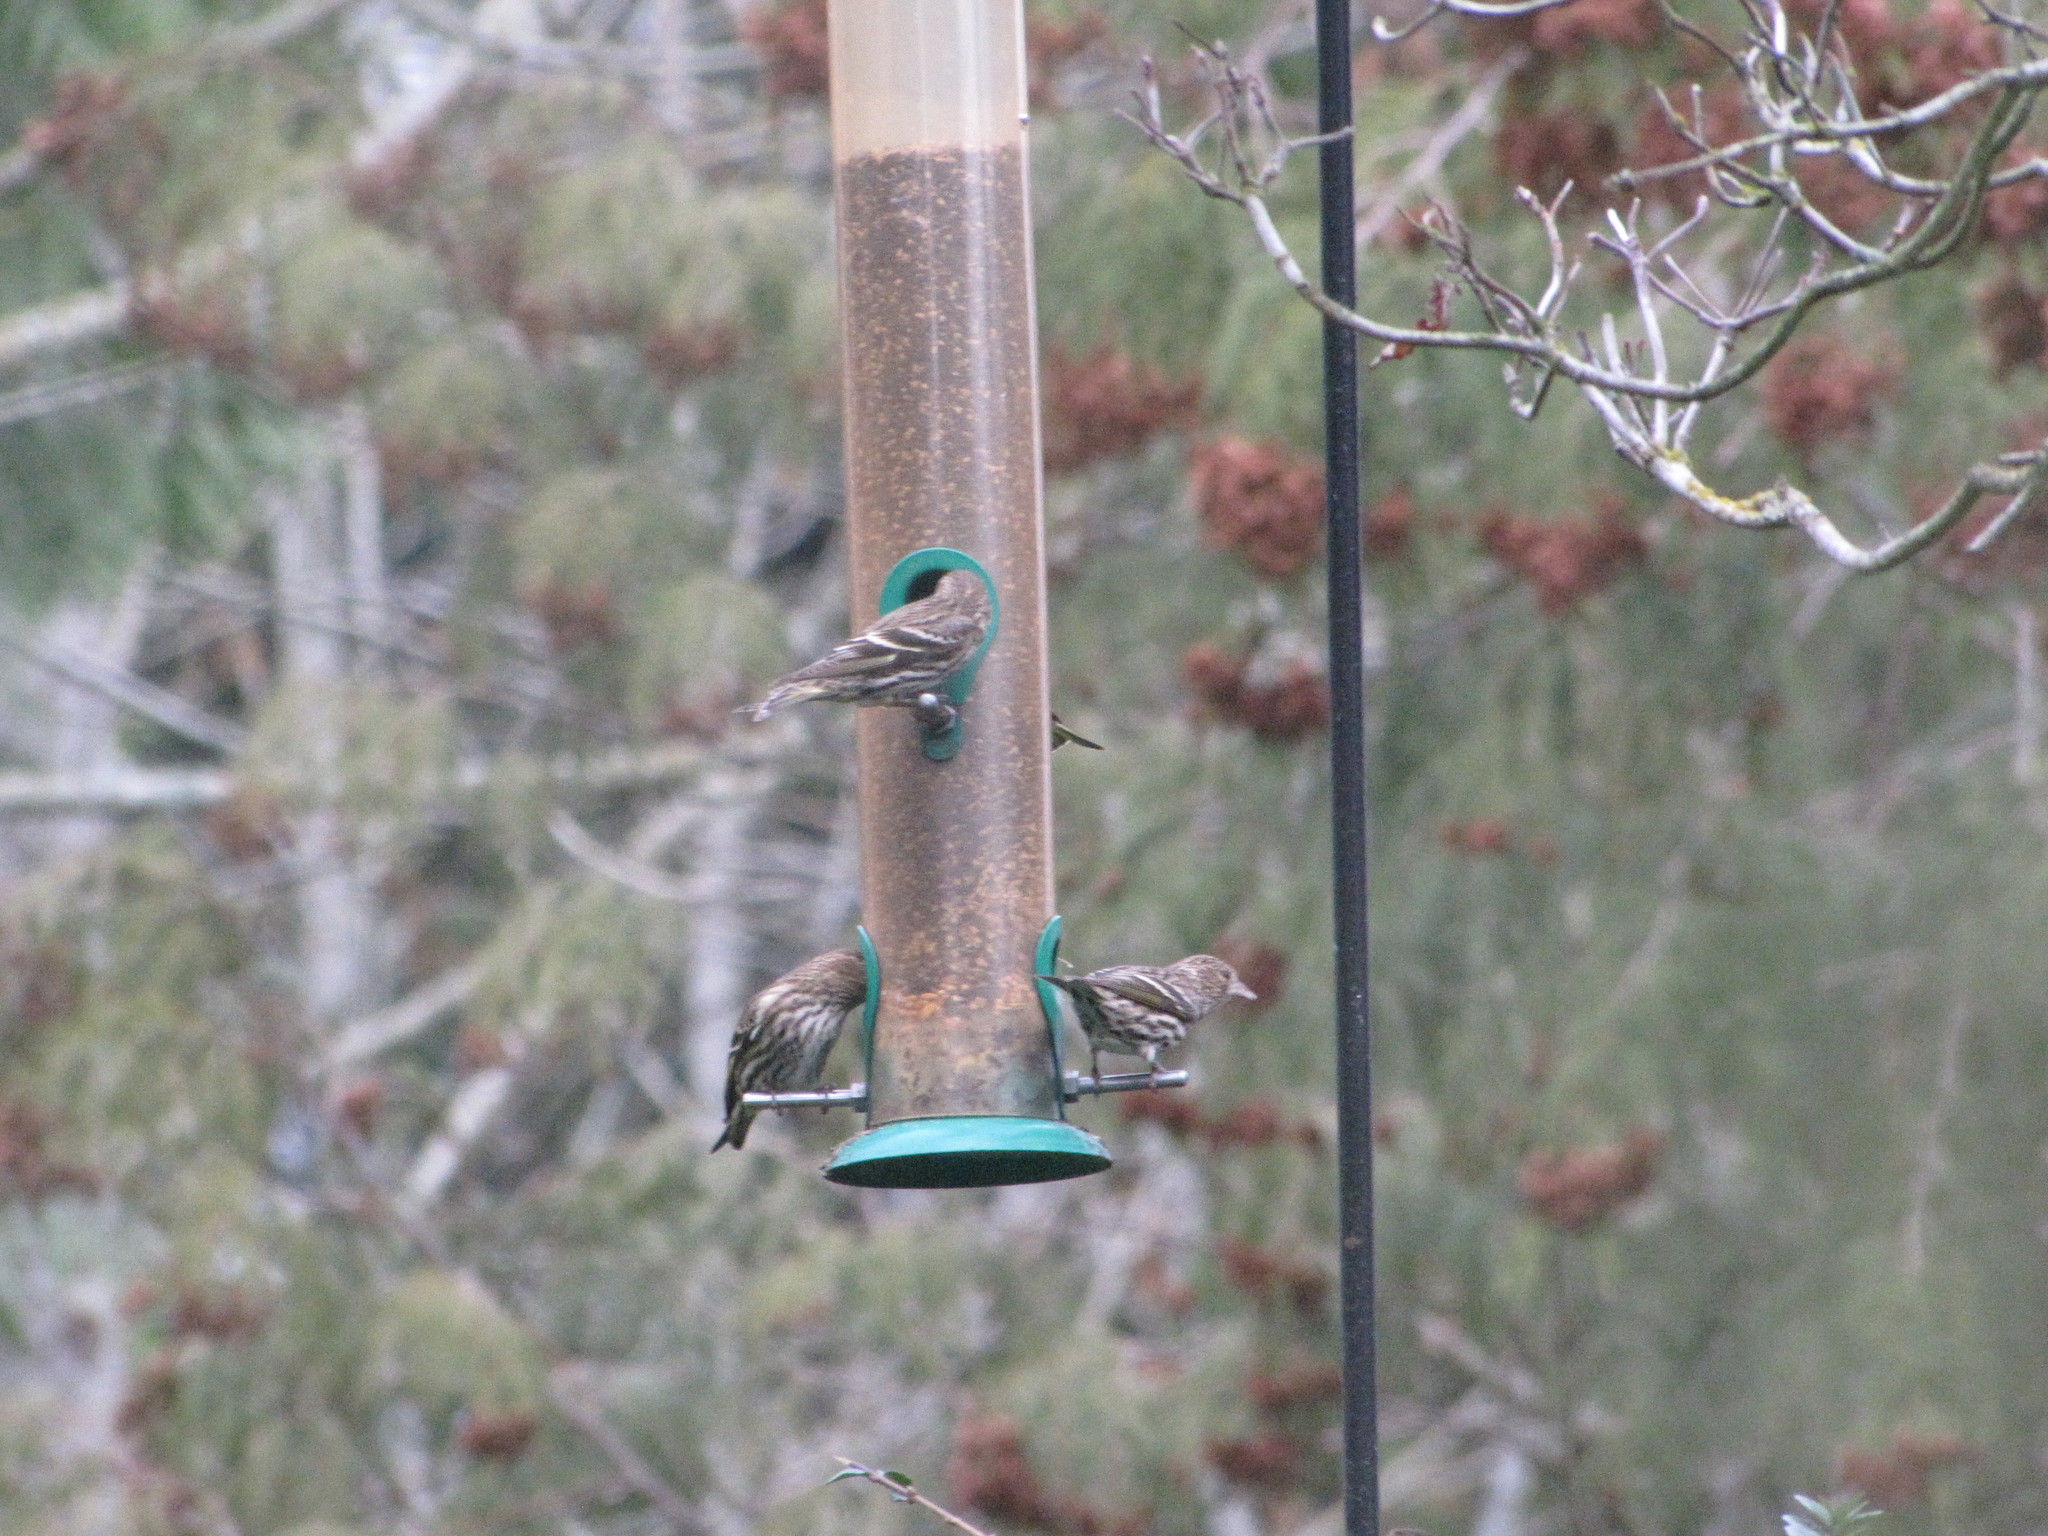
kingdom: Animalia
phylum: Chordata
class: Aves
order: Passeriformes
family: Fringillidae
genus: Spinus
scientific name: Spinus pinus
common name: Pine siskin
